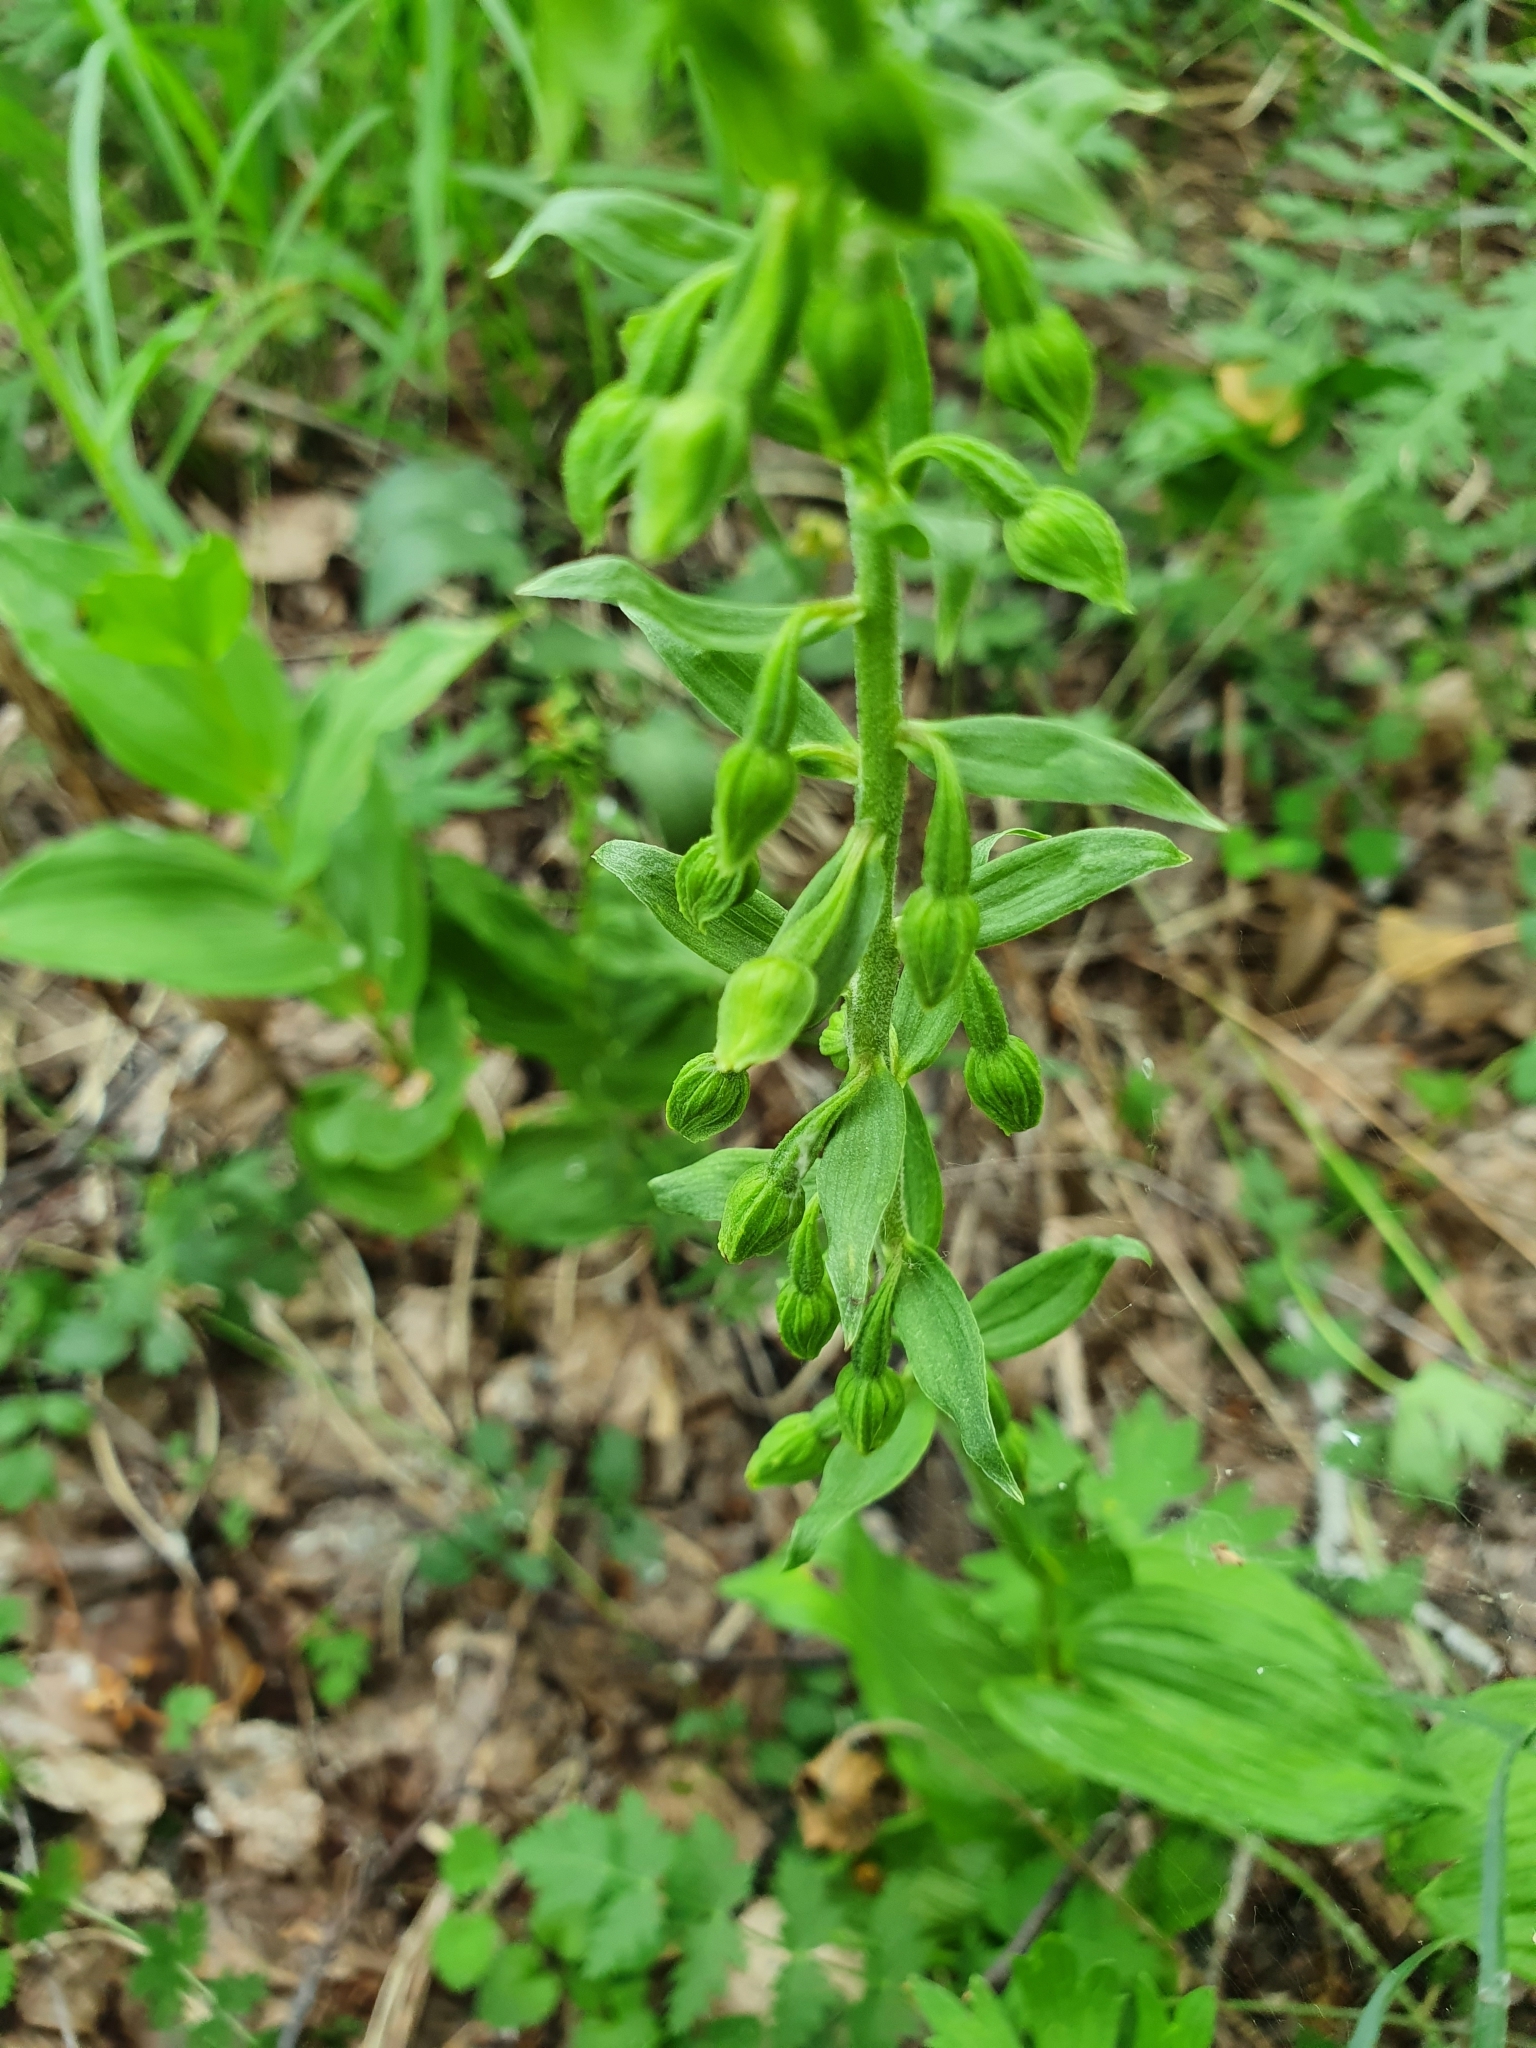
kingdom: Plantae
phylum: Tracheophyta
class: Liliopsida
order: Asparagales
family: Orchidaceae
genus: Epipactis
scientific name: Epipactis helleborine
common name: Broad-leaved helleborine
